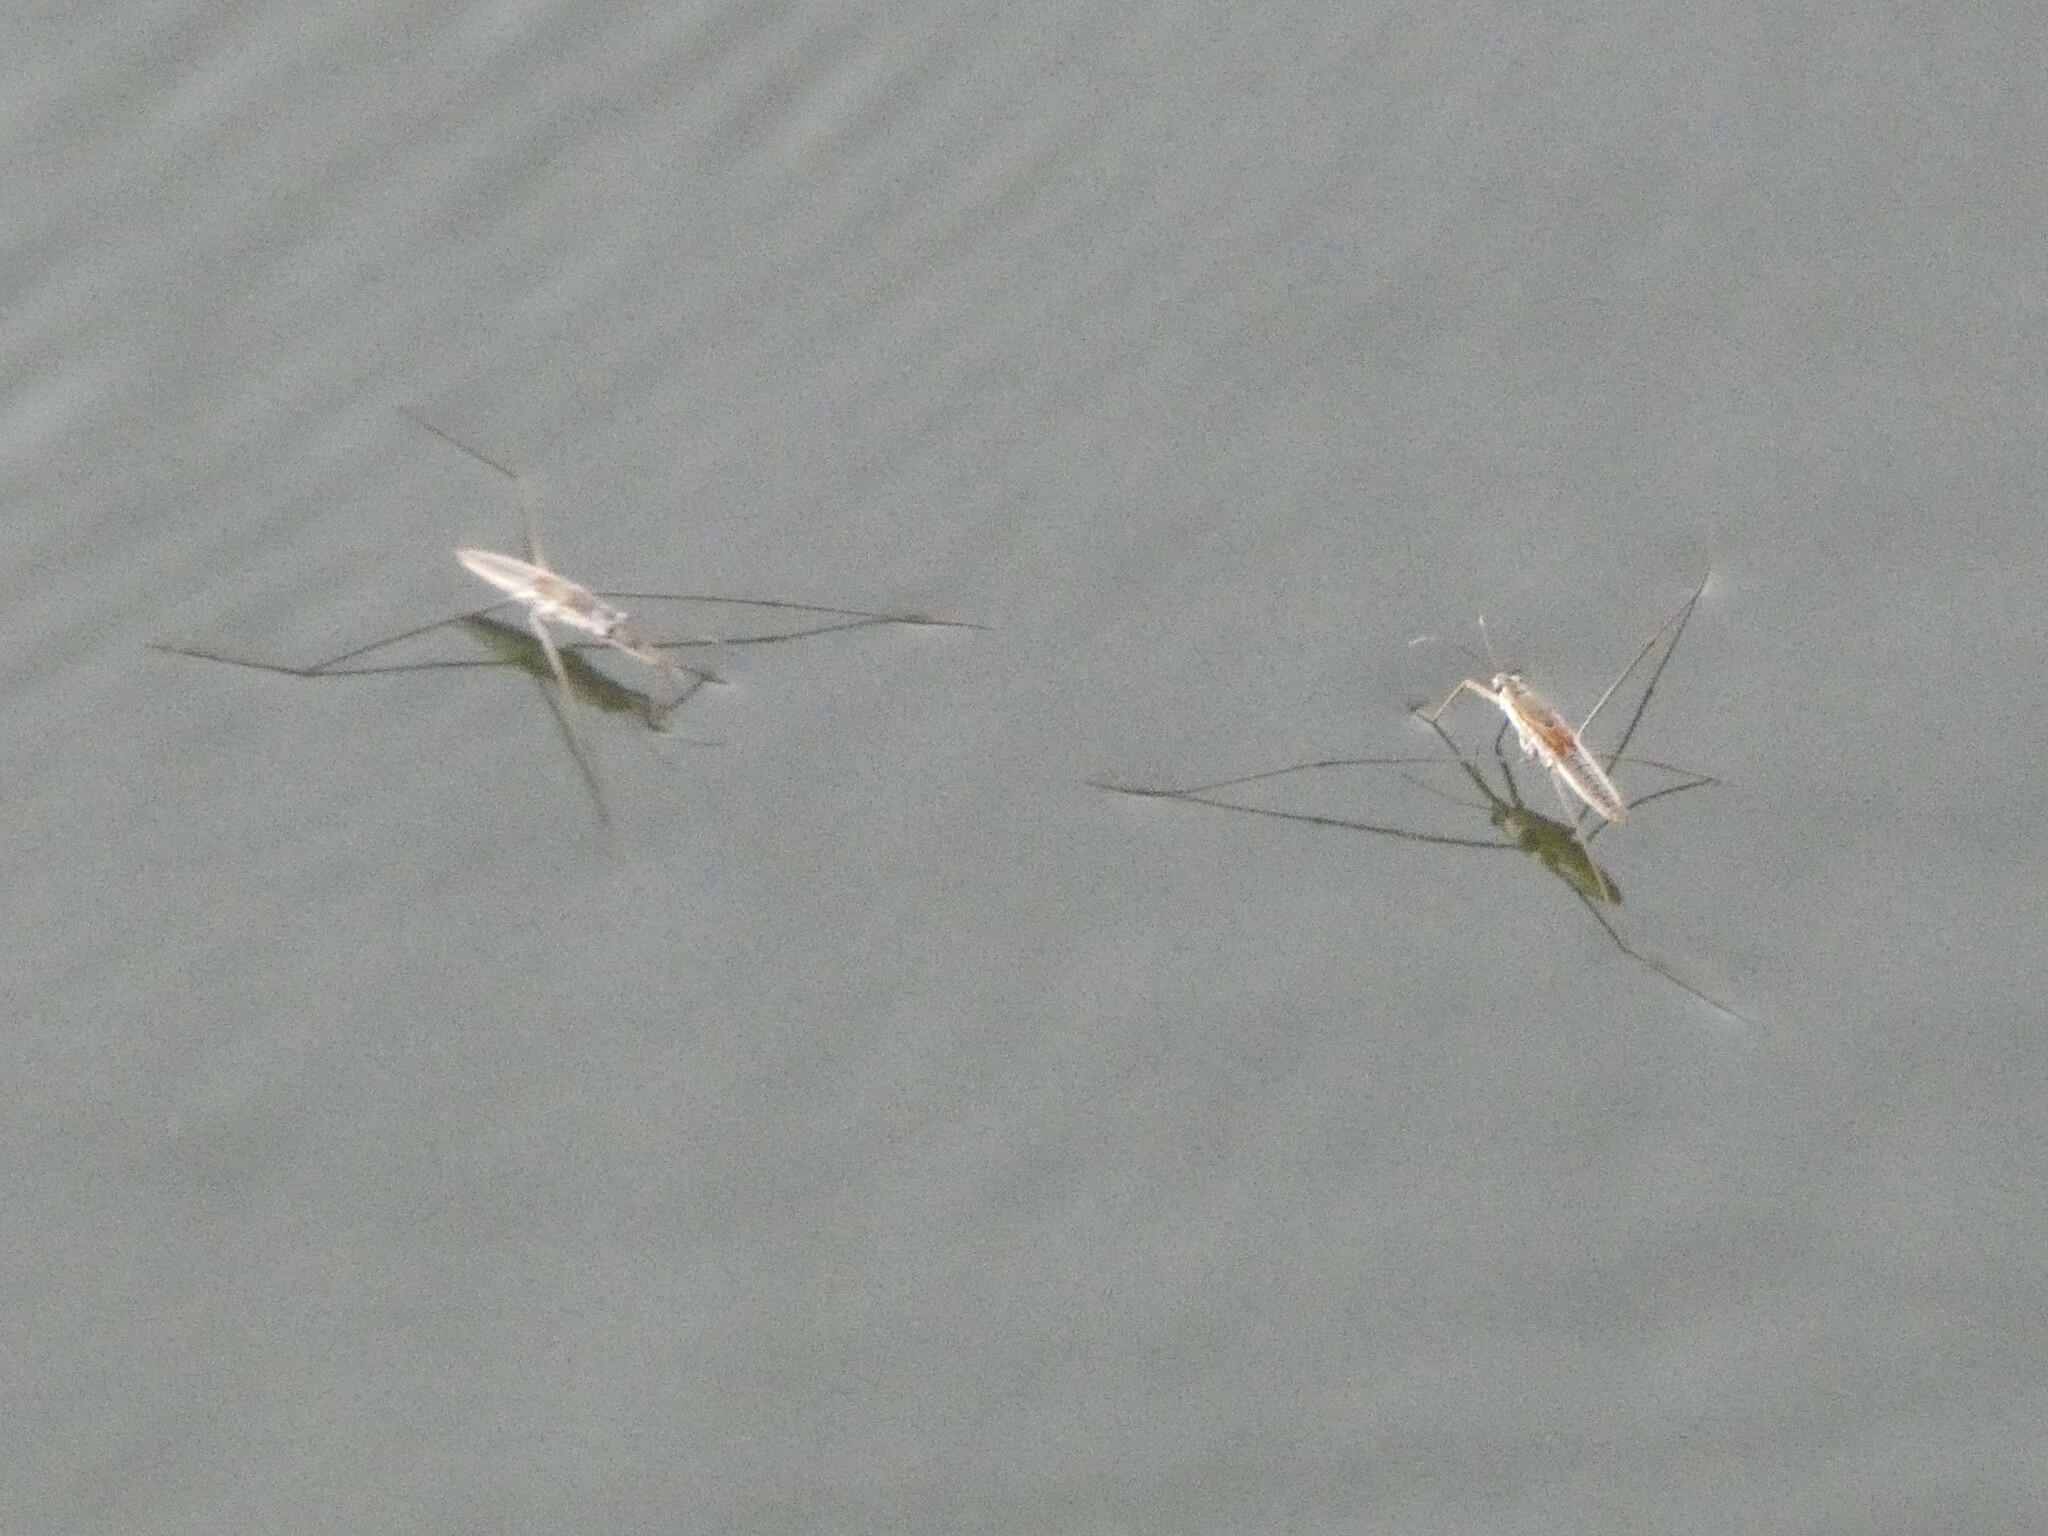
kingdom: Animalia
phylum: Arthropoda
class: Insecta
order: Hemiptera
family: Gerridae
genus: Aquarius
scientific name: Aquarius adelaidis
